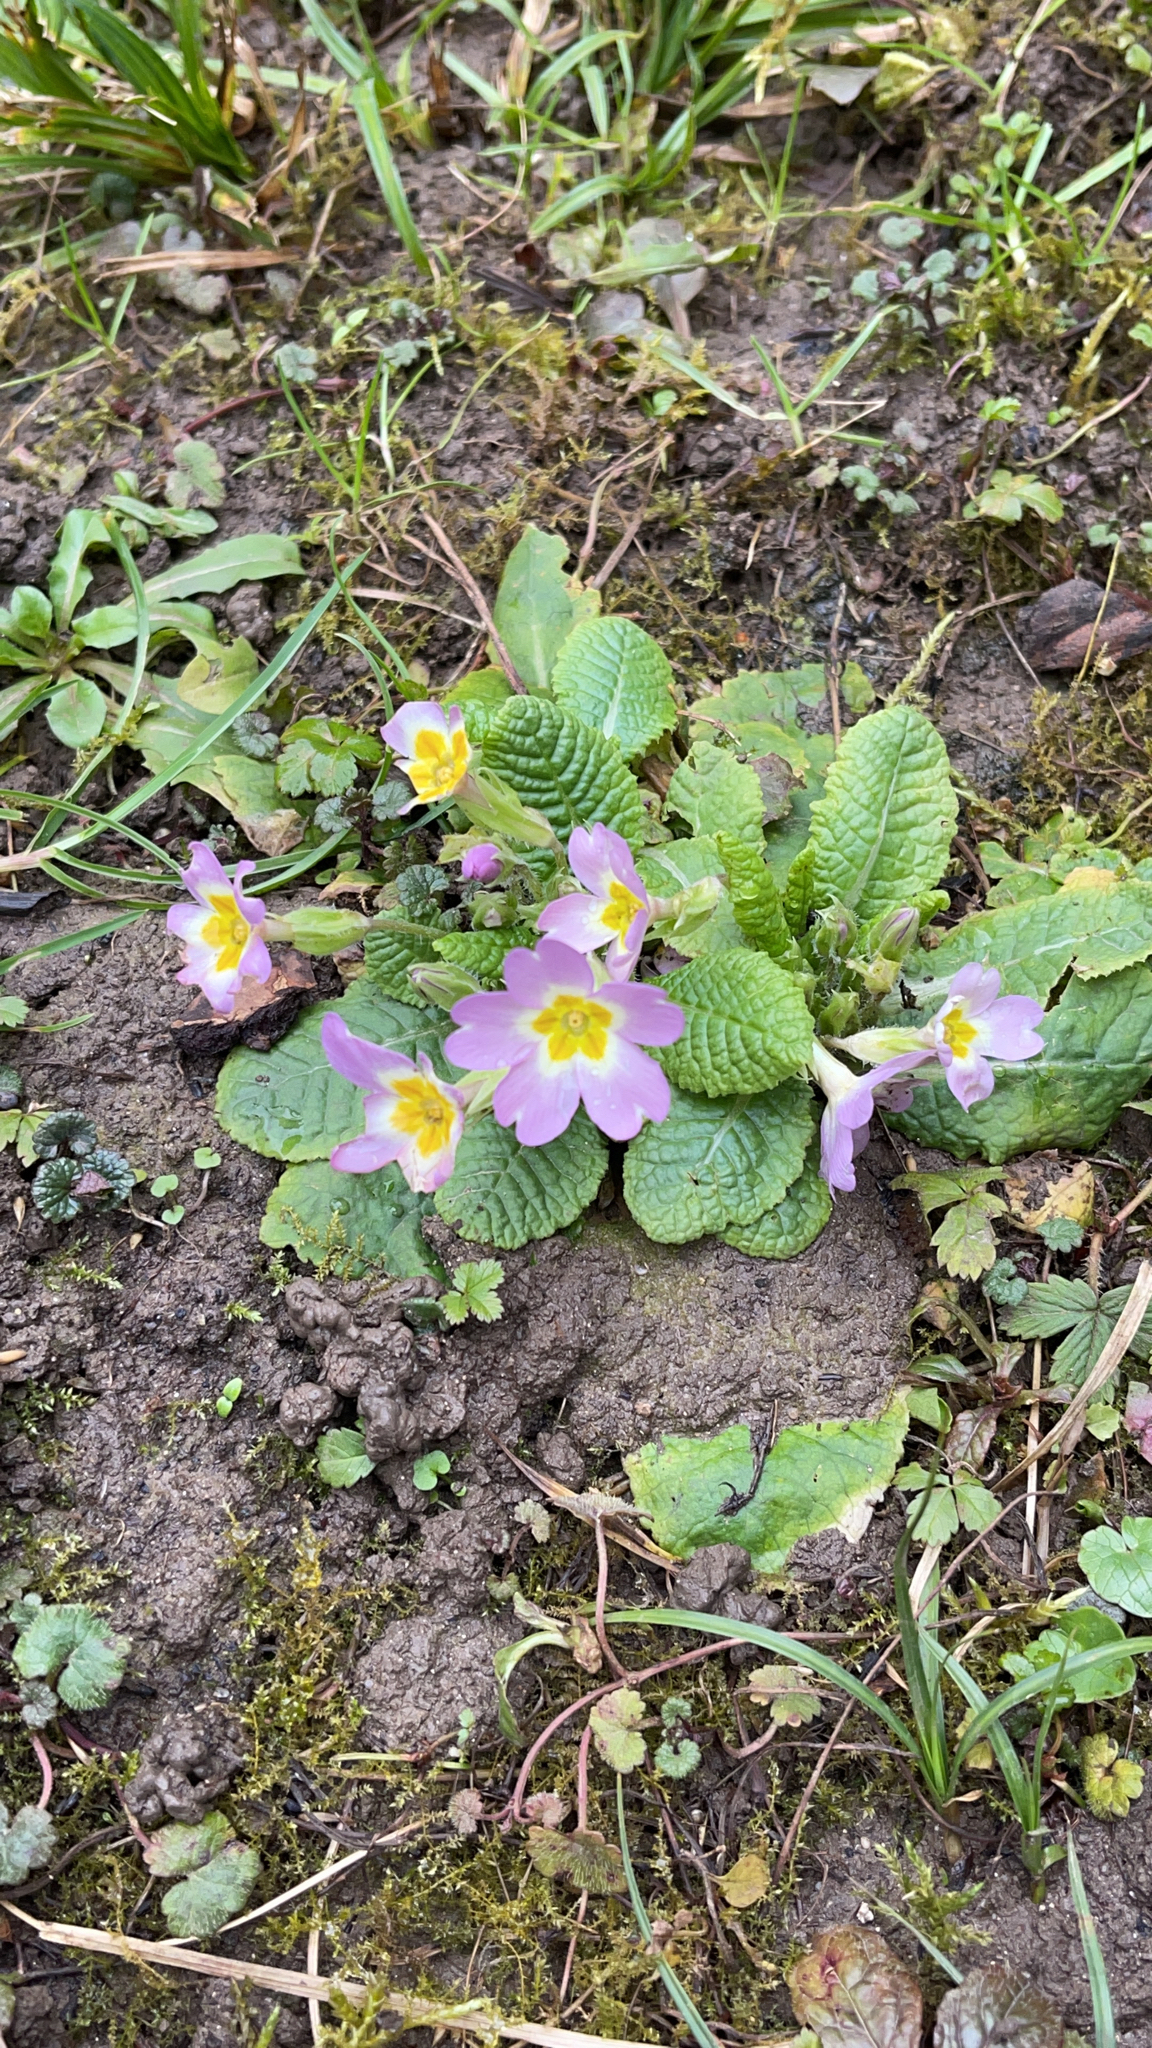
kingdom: Plantae
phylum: Tracheophyta
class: Magnoliopsida
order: Ericales
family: Primulaceae
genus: Primula
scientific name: Primula vulgaris
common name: Primrose
